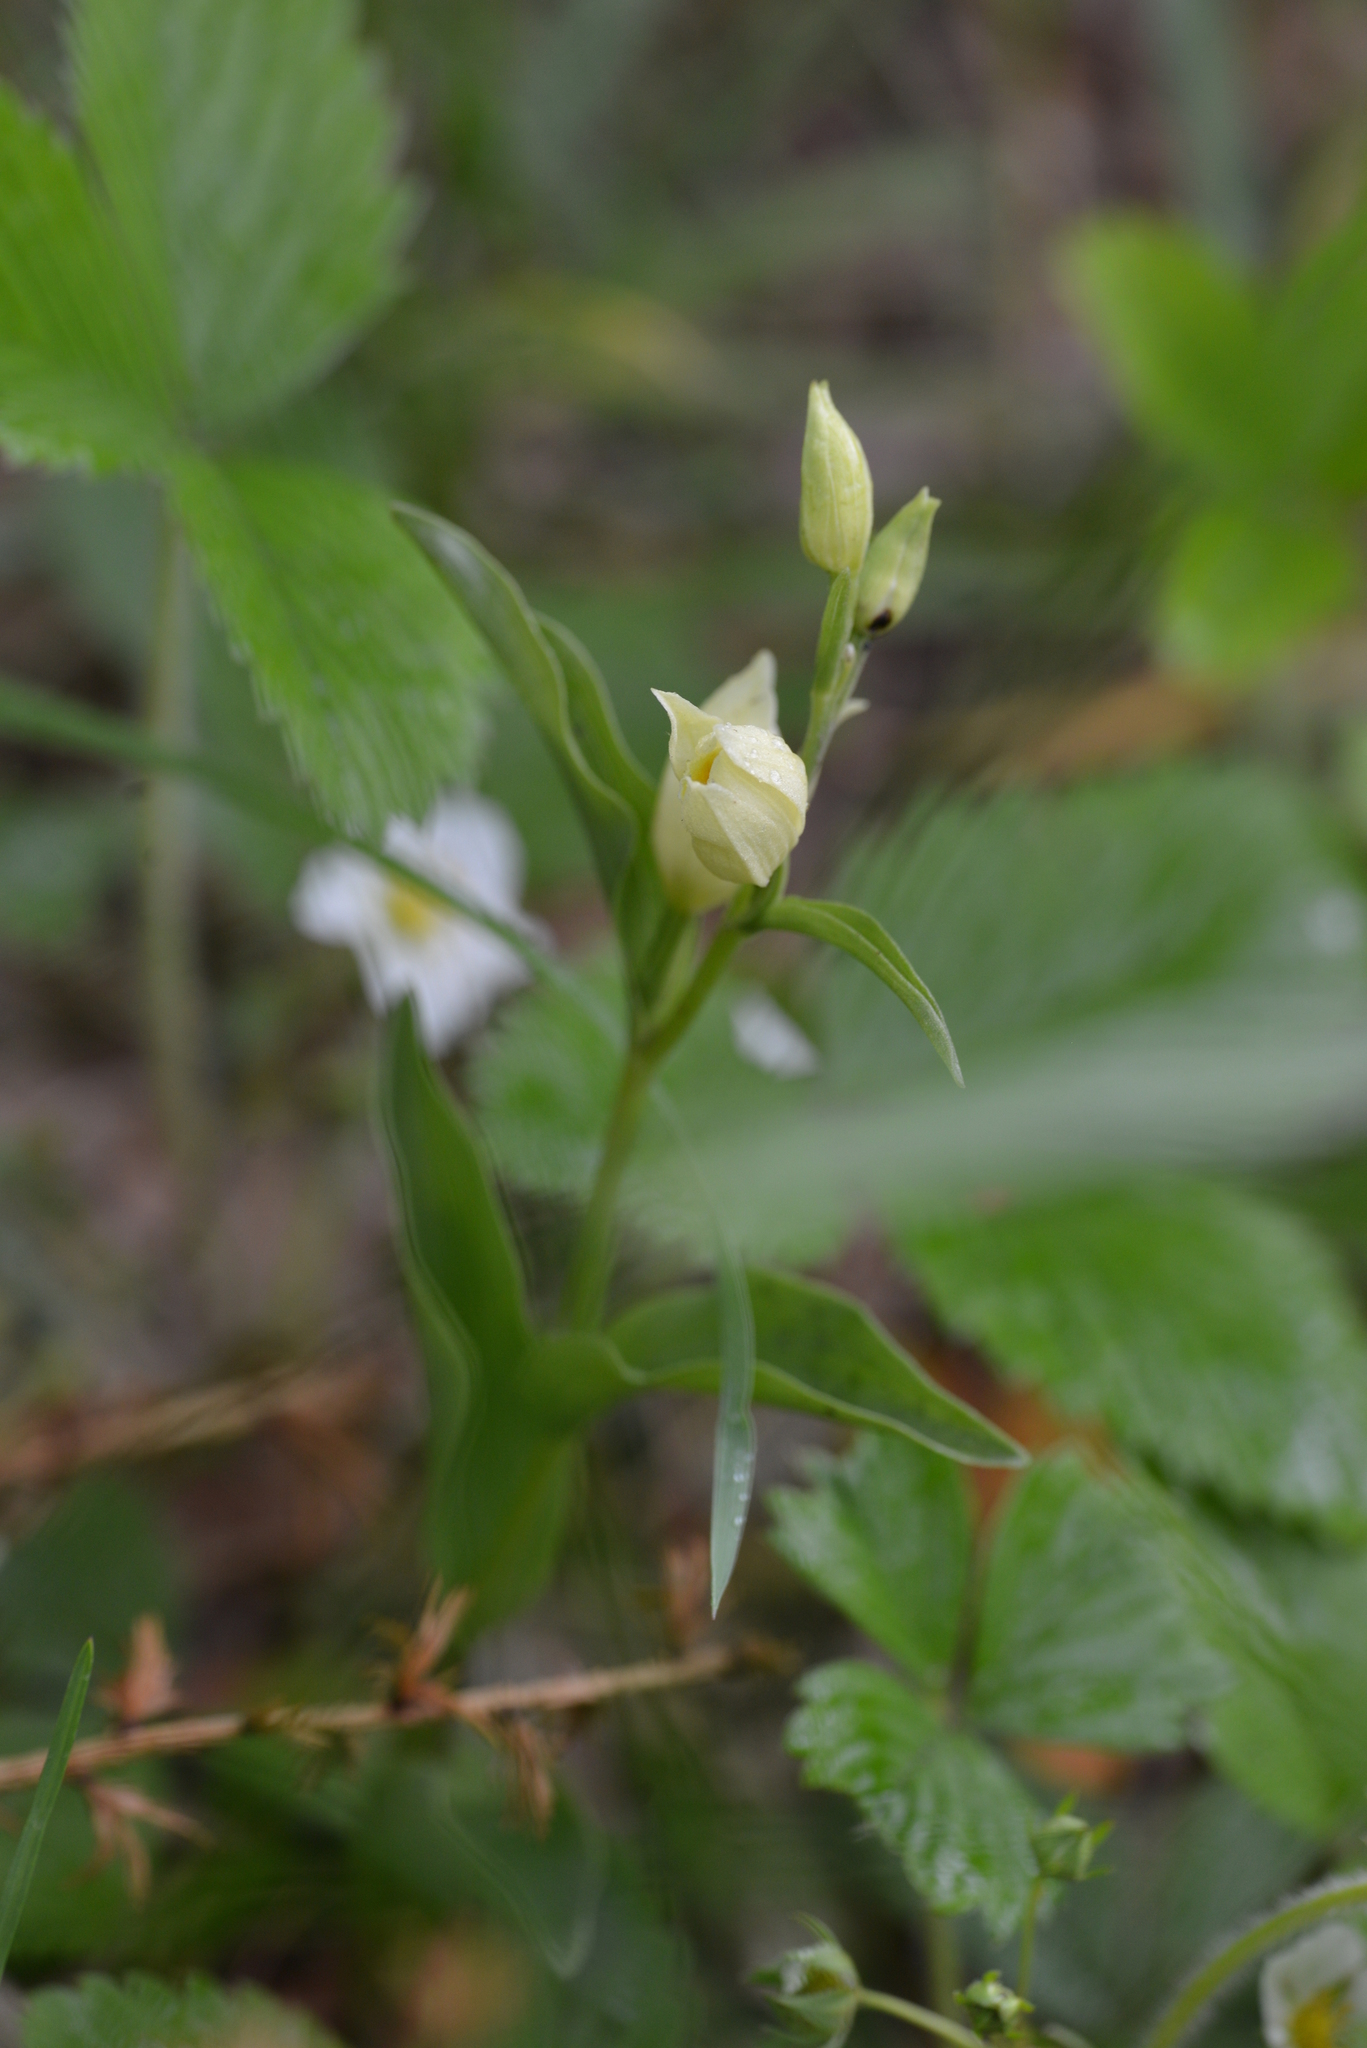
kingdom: Plantae
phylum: Tracheophyta
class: Liliopsida
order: Asparagales
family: Orchidaceae
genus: Cephalanthera
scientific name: Cephalanthera damasonium
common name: White helleborine
